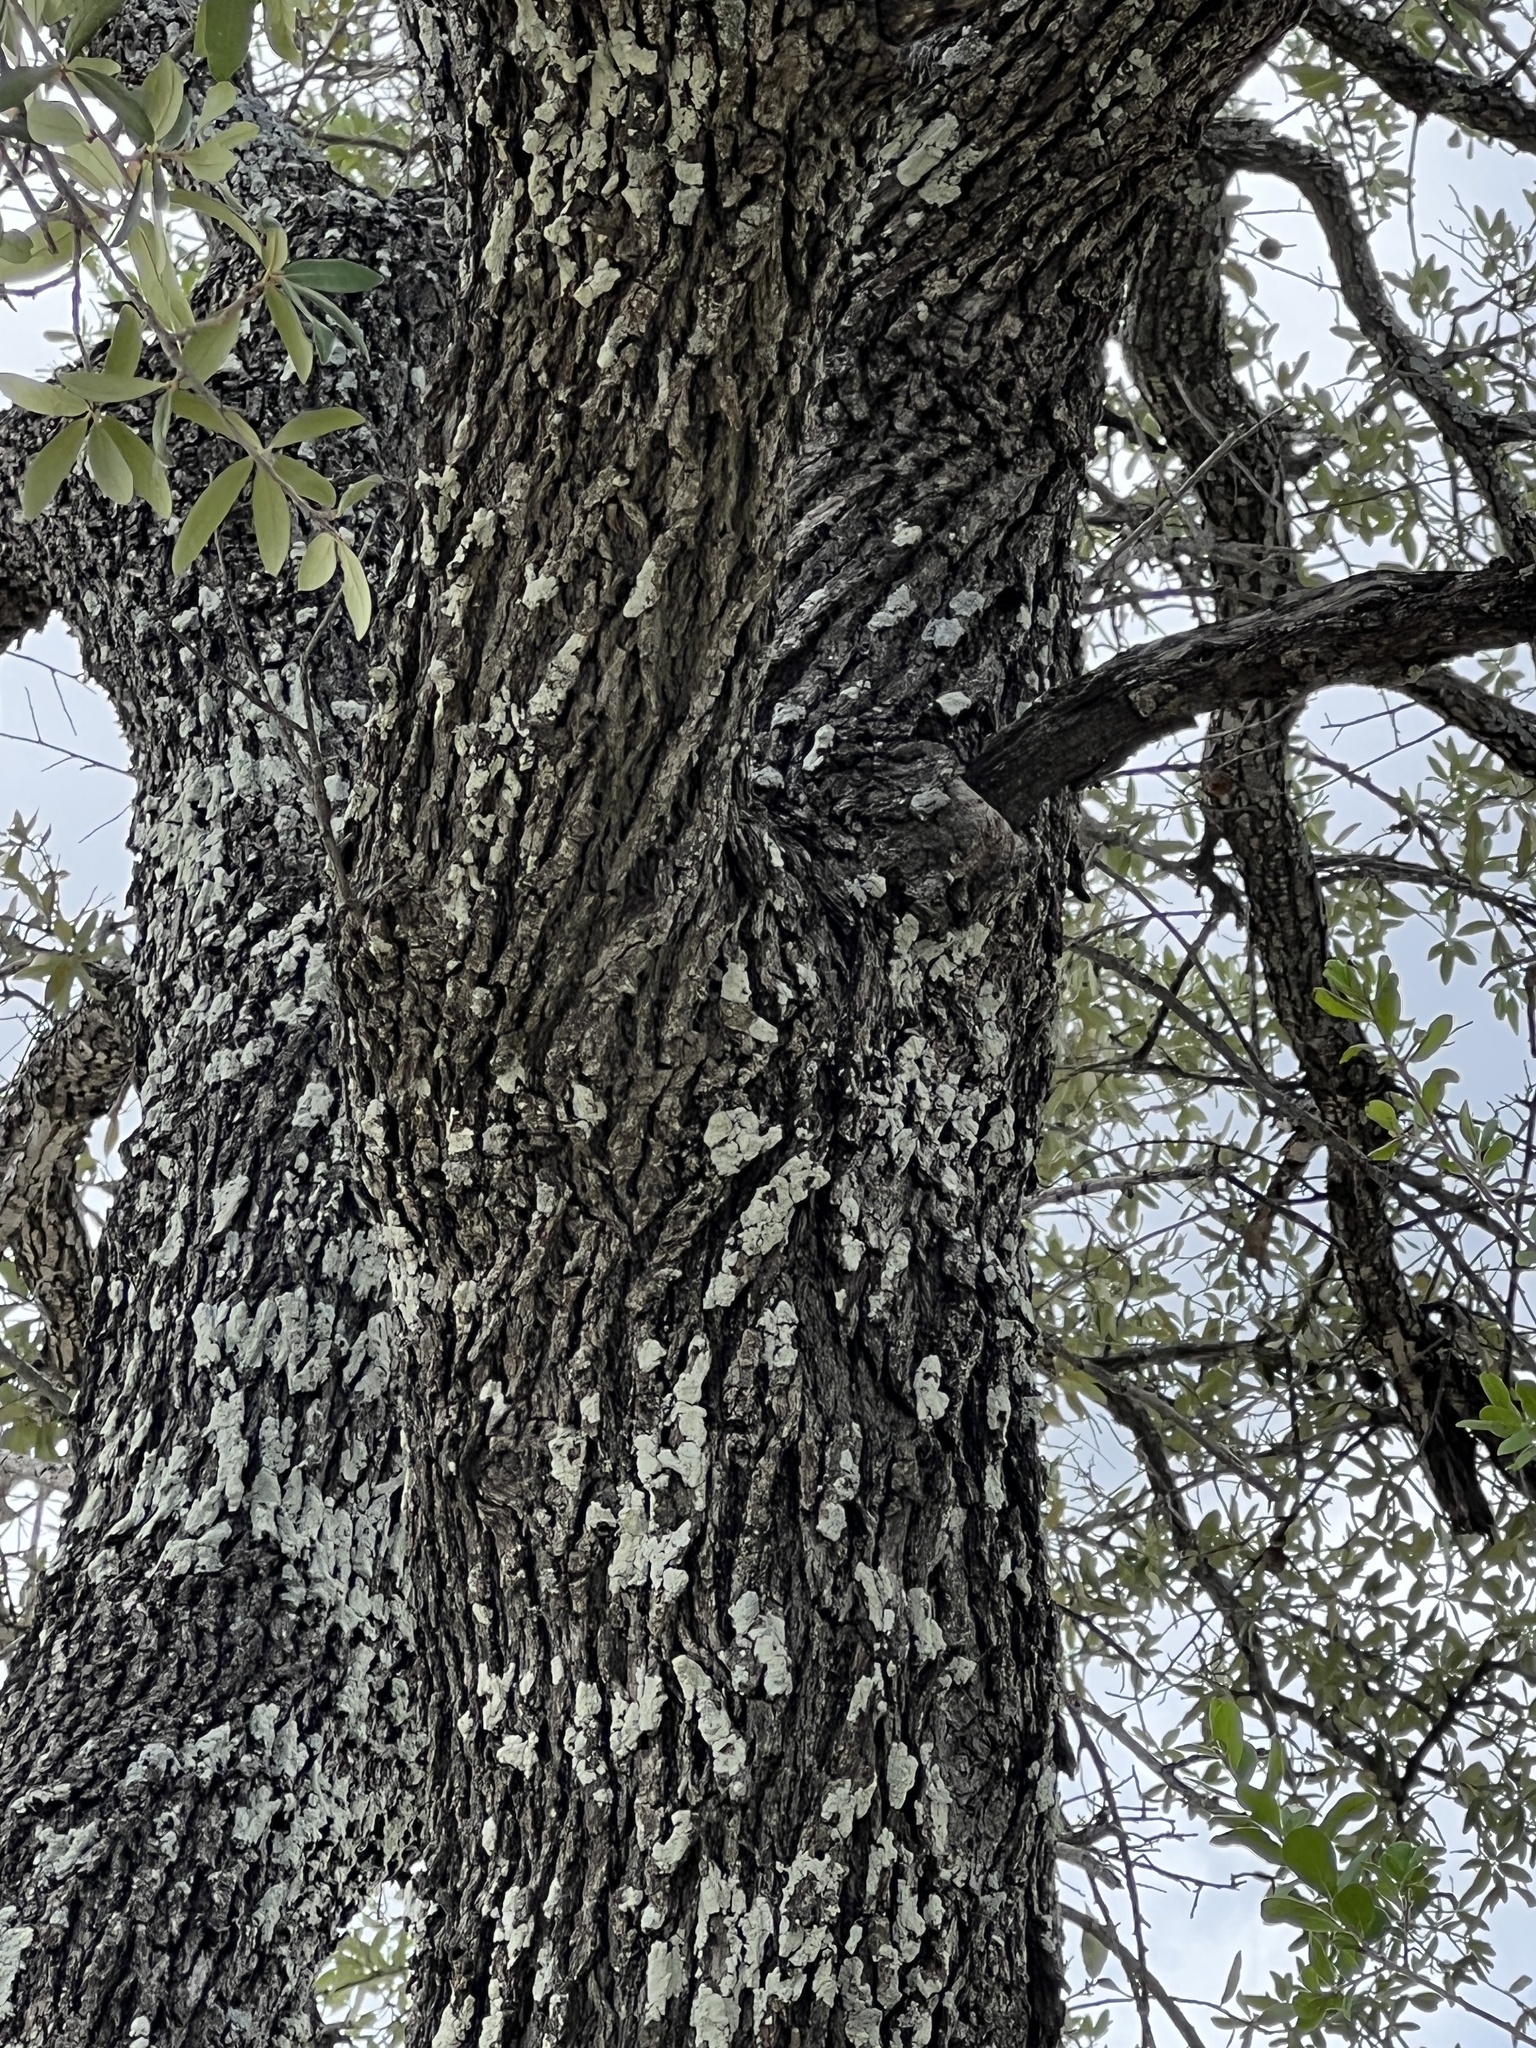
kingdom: Plantae
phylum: Tracheophyta
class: Magnoliopsida
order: Fagales
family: Fagaceae
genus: Quercus
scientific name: Quercus fusiformis
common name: Texas live oak
